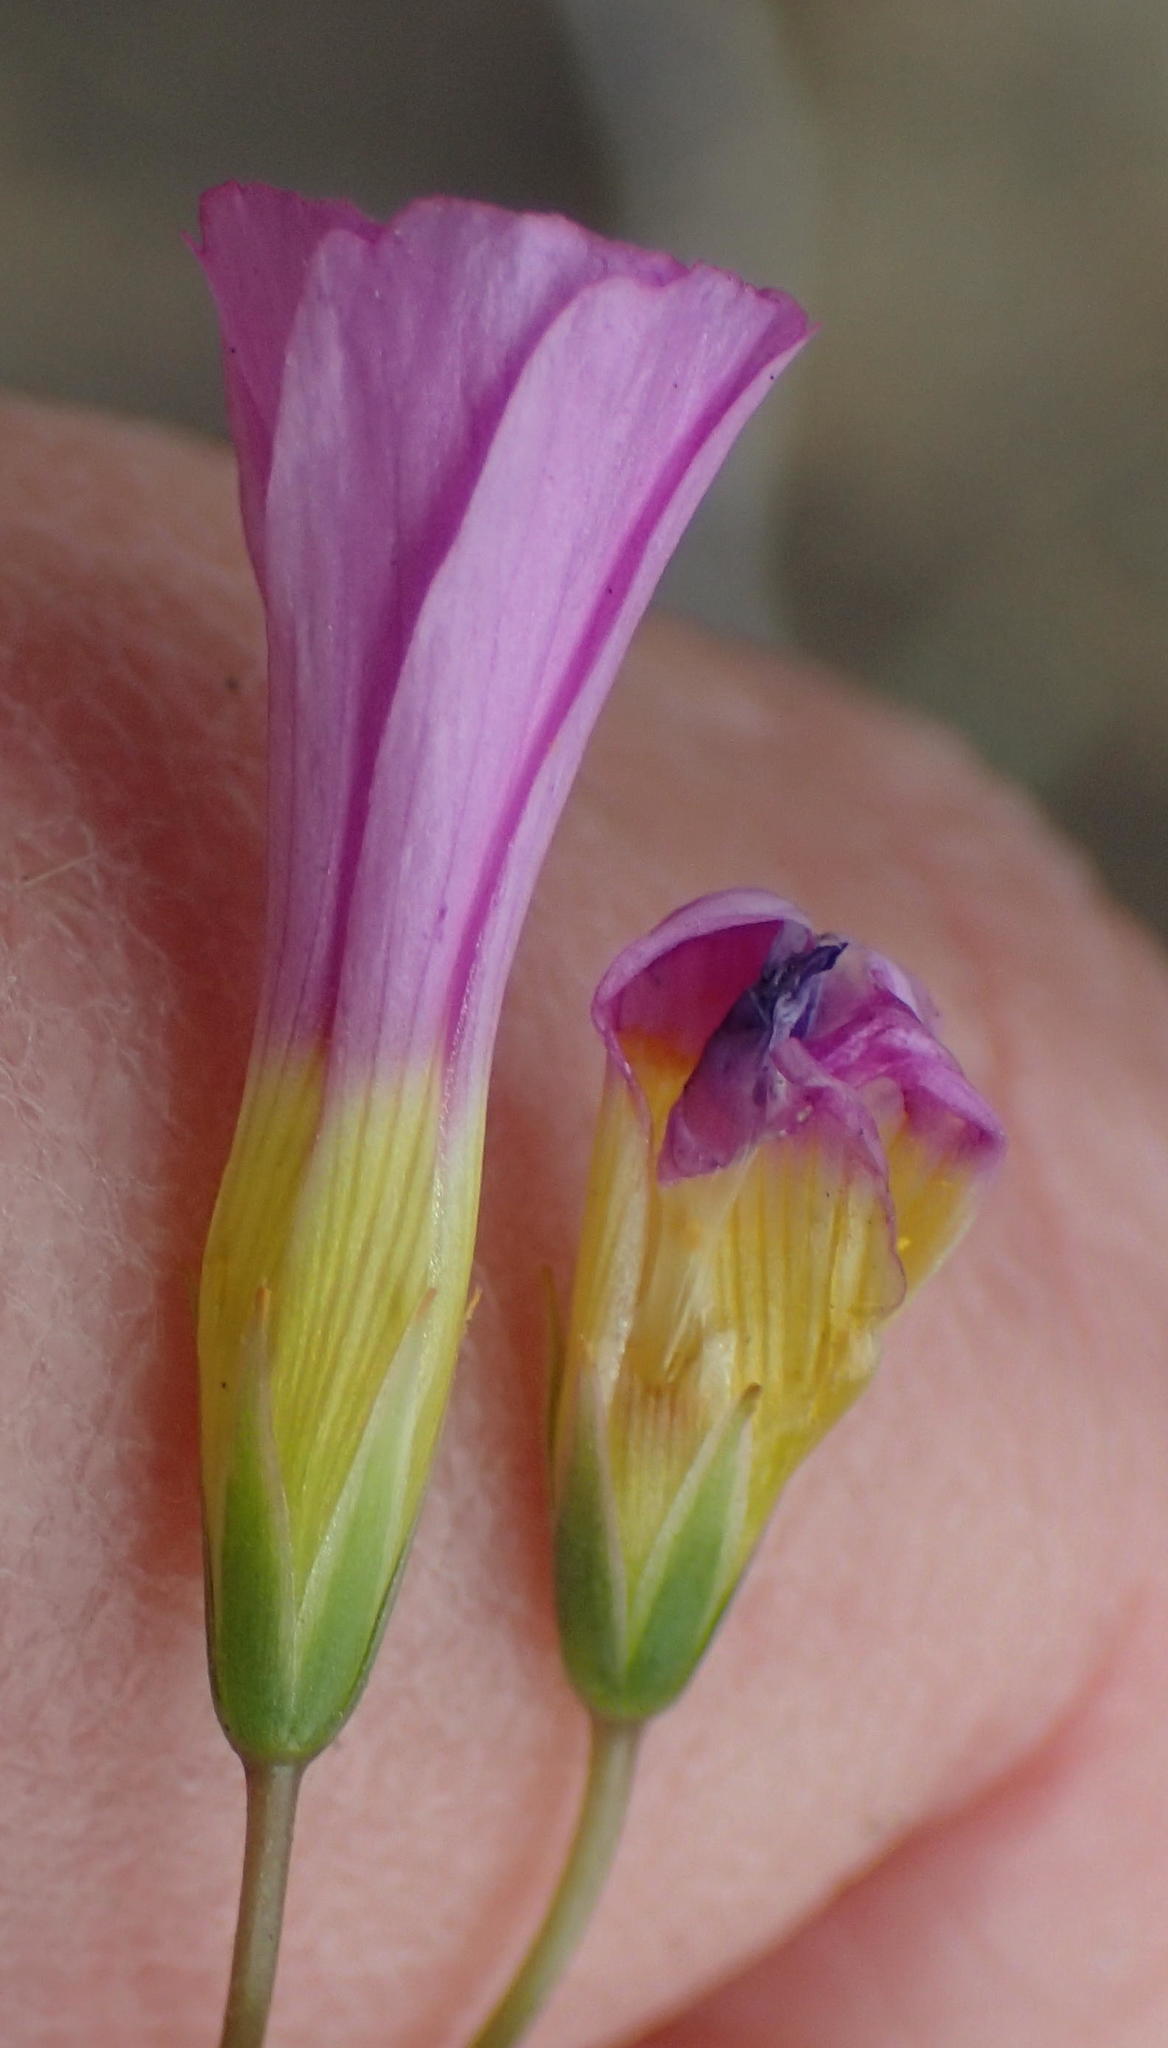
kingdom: Plantae
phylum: Tracheophyta
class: Magnoliopsida
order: Oxalidales
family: Oxalidaceae
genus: Oxalis
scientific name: Oxalis dichotoma
